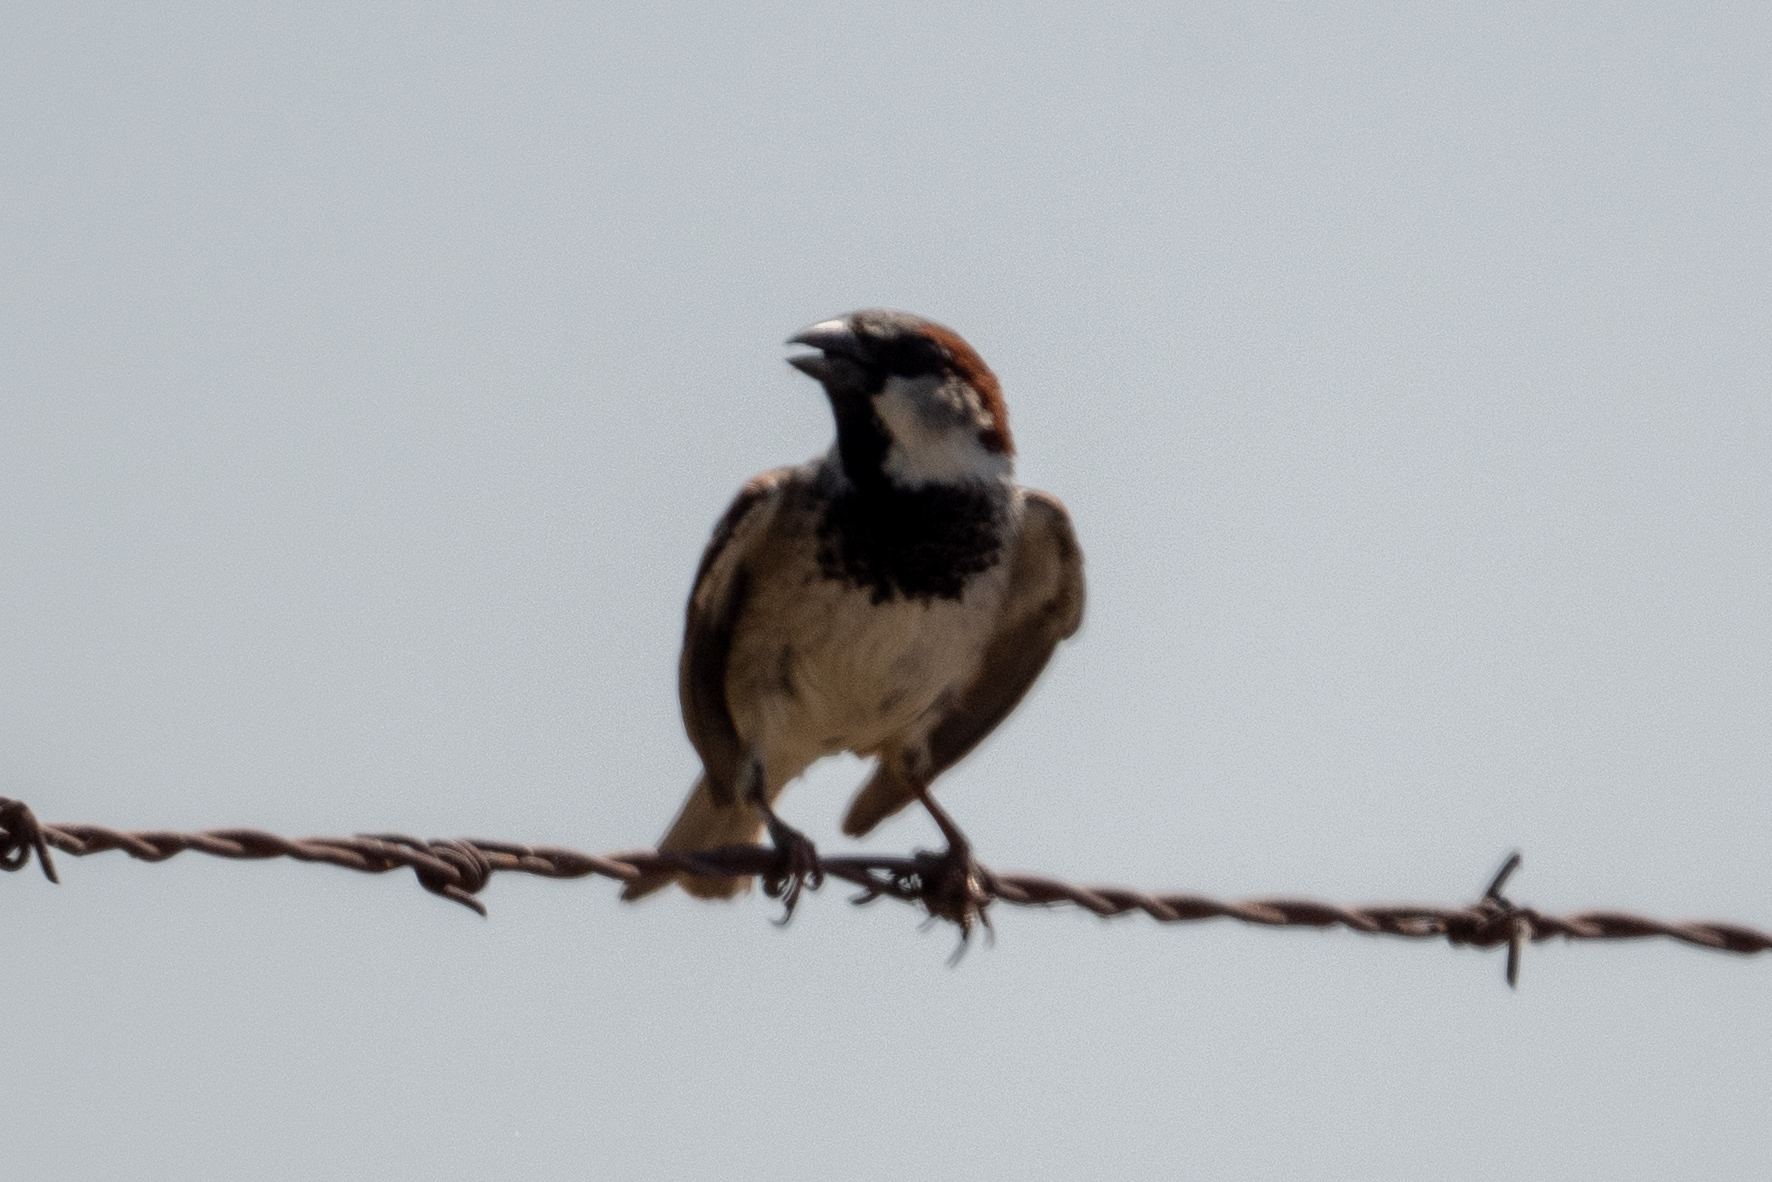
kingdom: Animalia
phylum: Chordata
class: Aves
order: Passeriformes
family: Passeridae
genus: Passer
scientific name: Passer domesticus
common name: House sparrow
